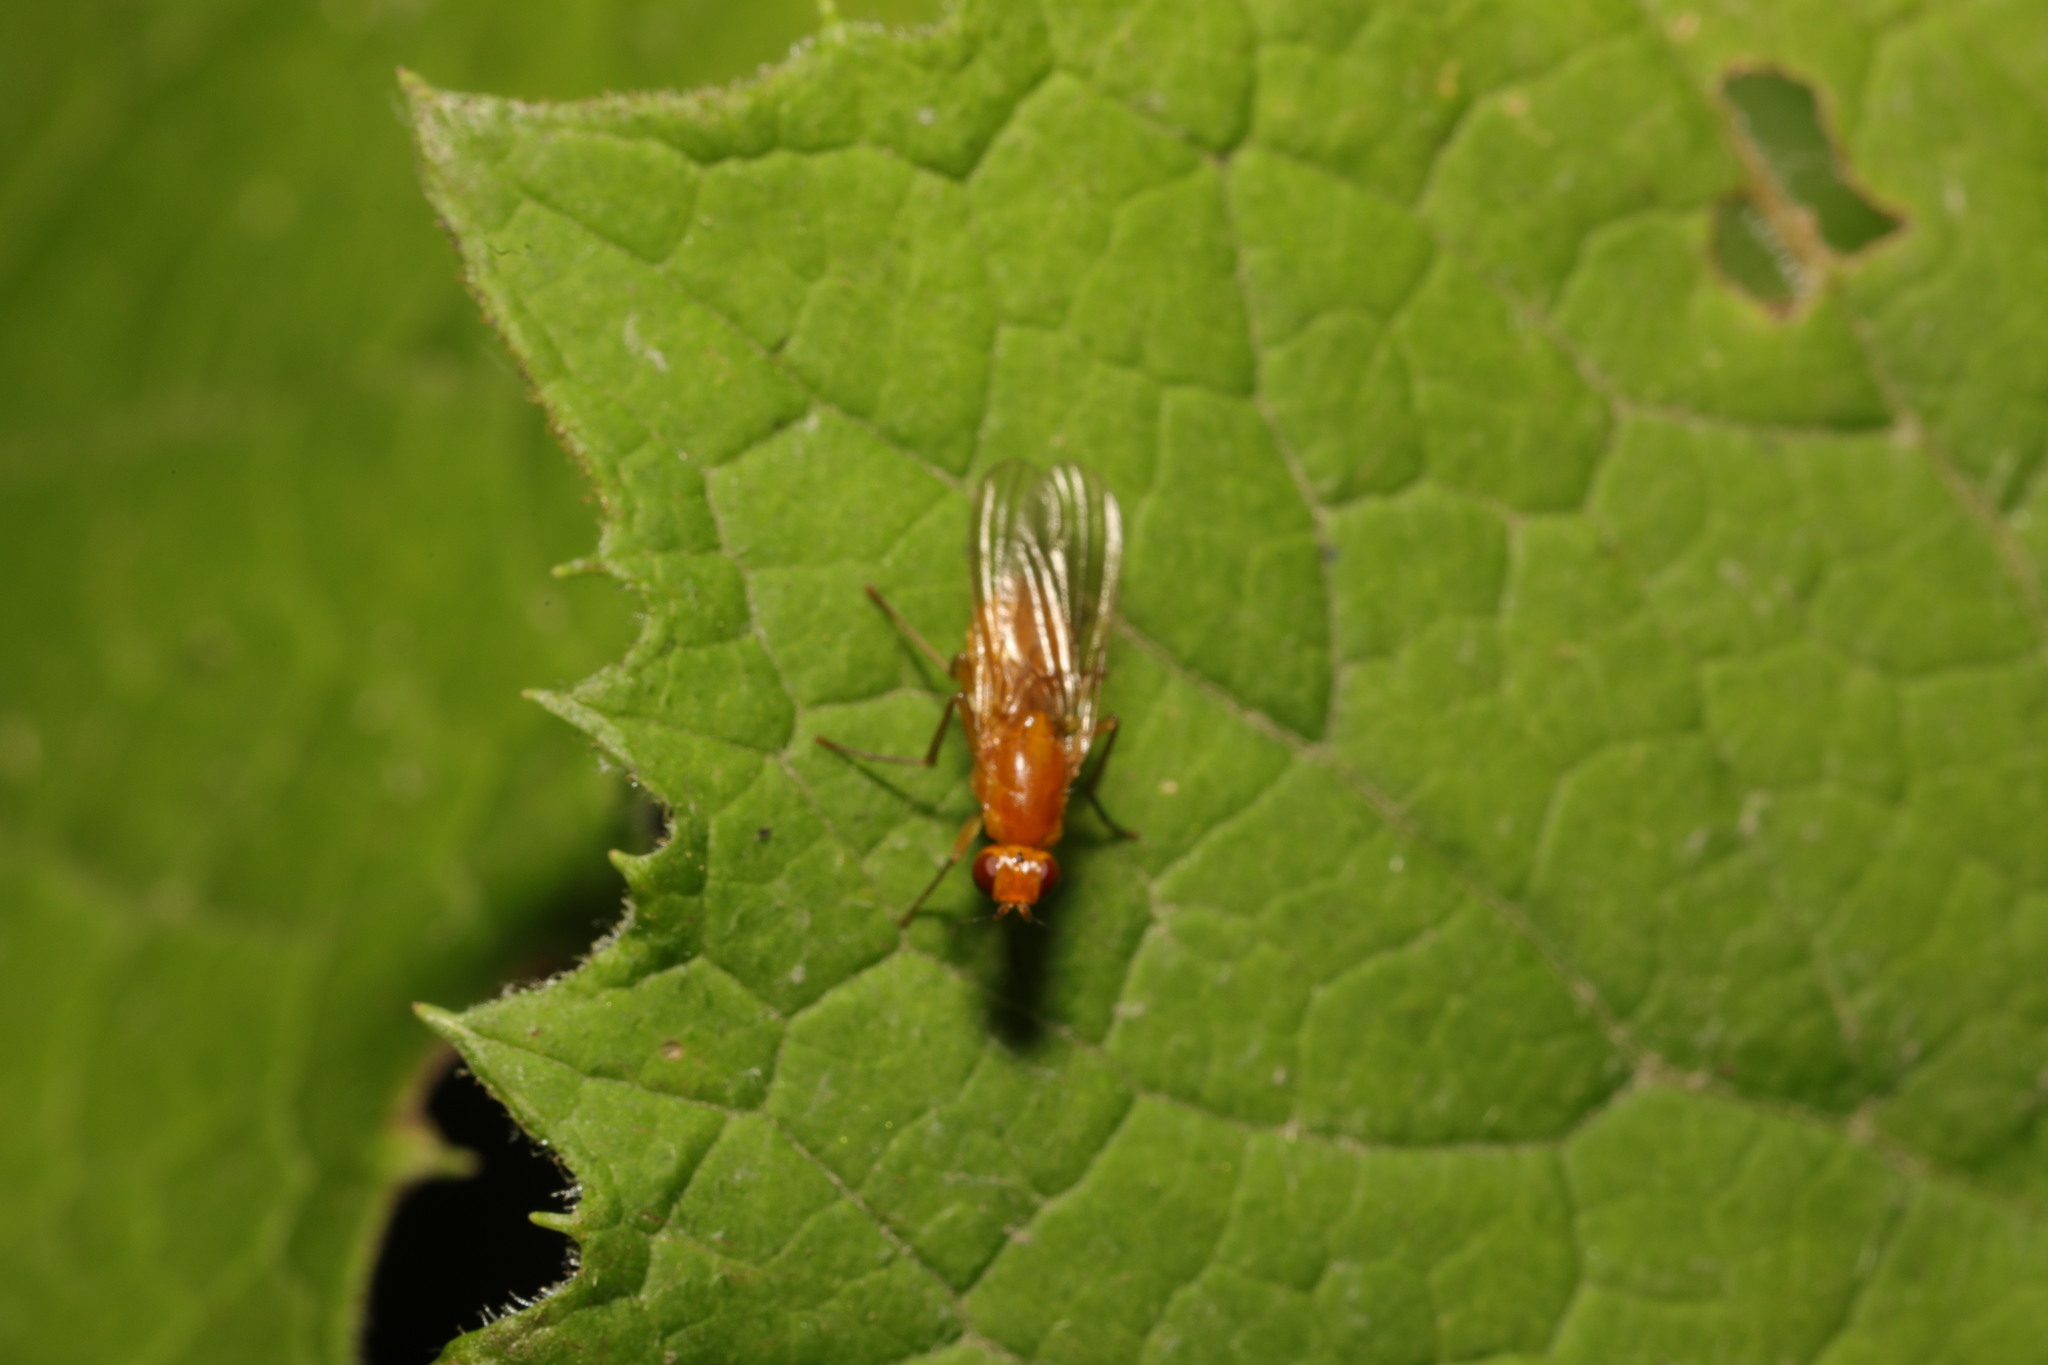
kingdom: Animalia
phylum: Arthropoda
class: Insecta
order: Diptera
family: Psilidae
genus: Psila
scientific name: Psila
